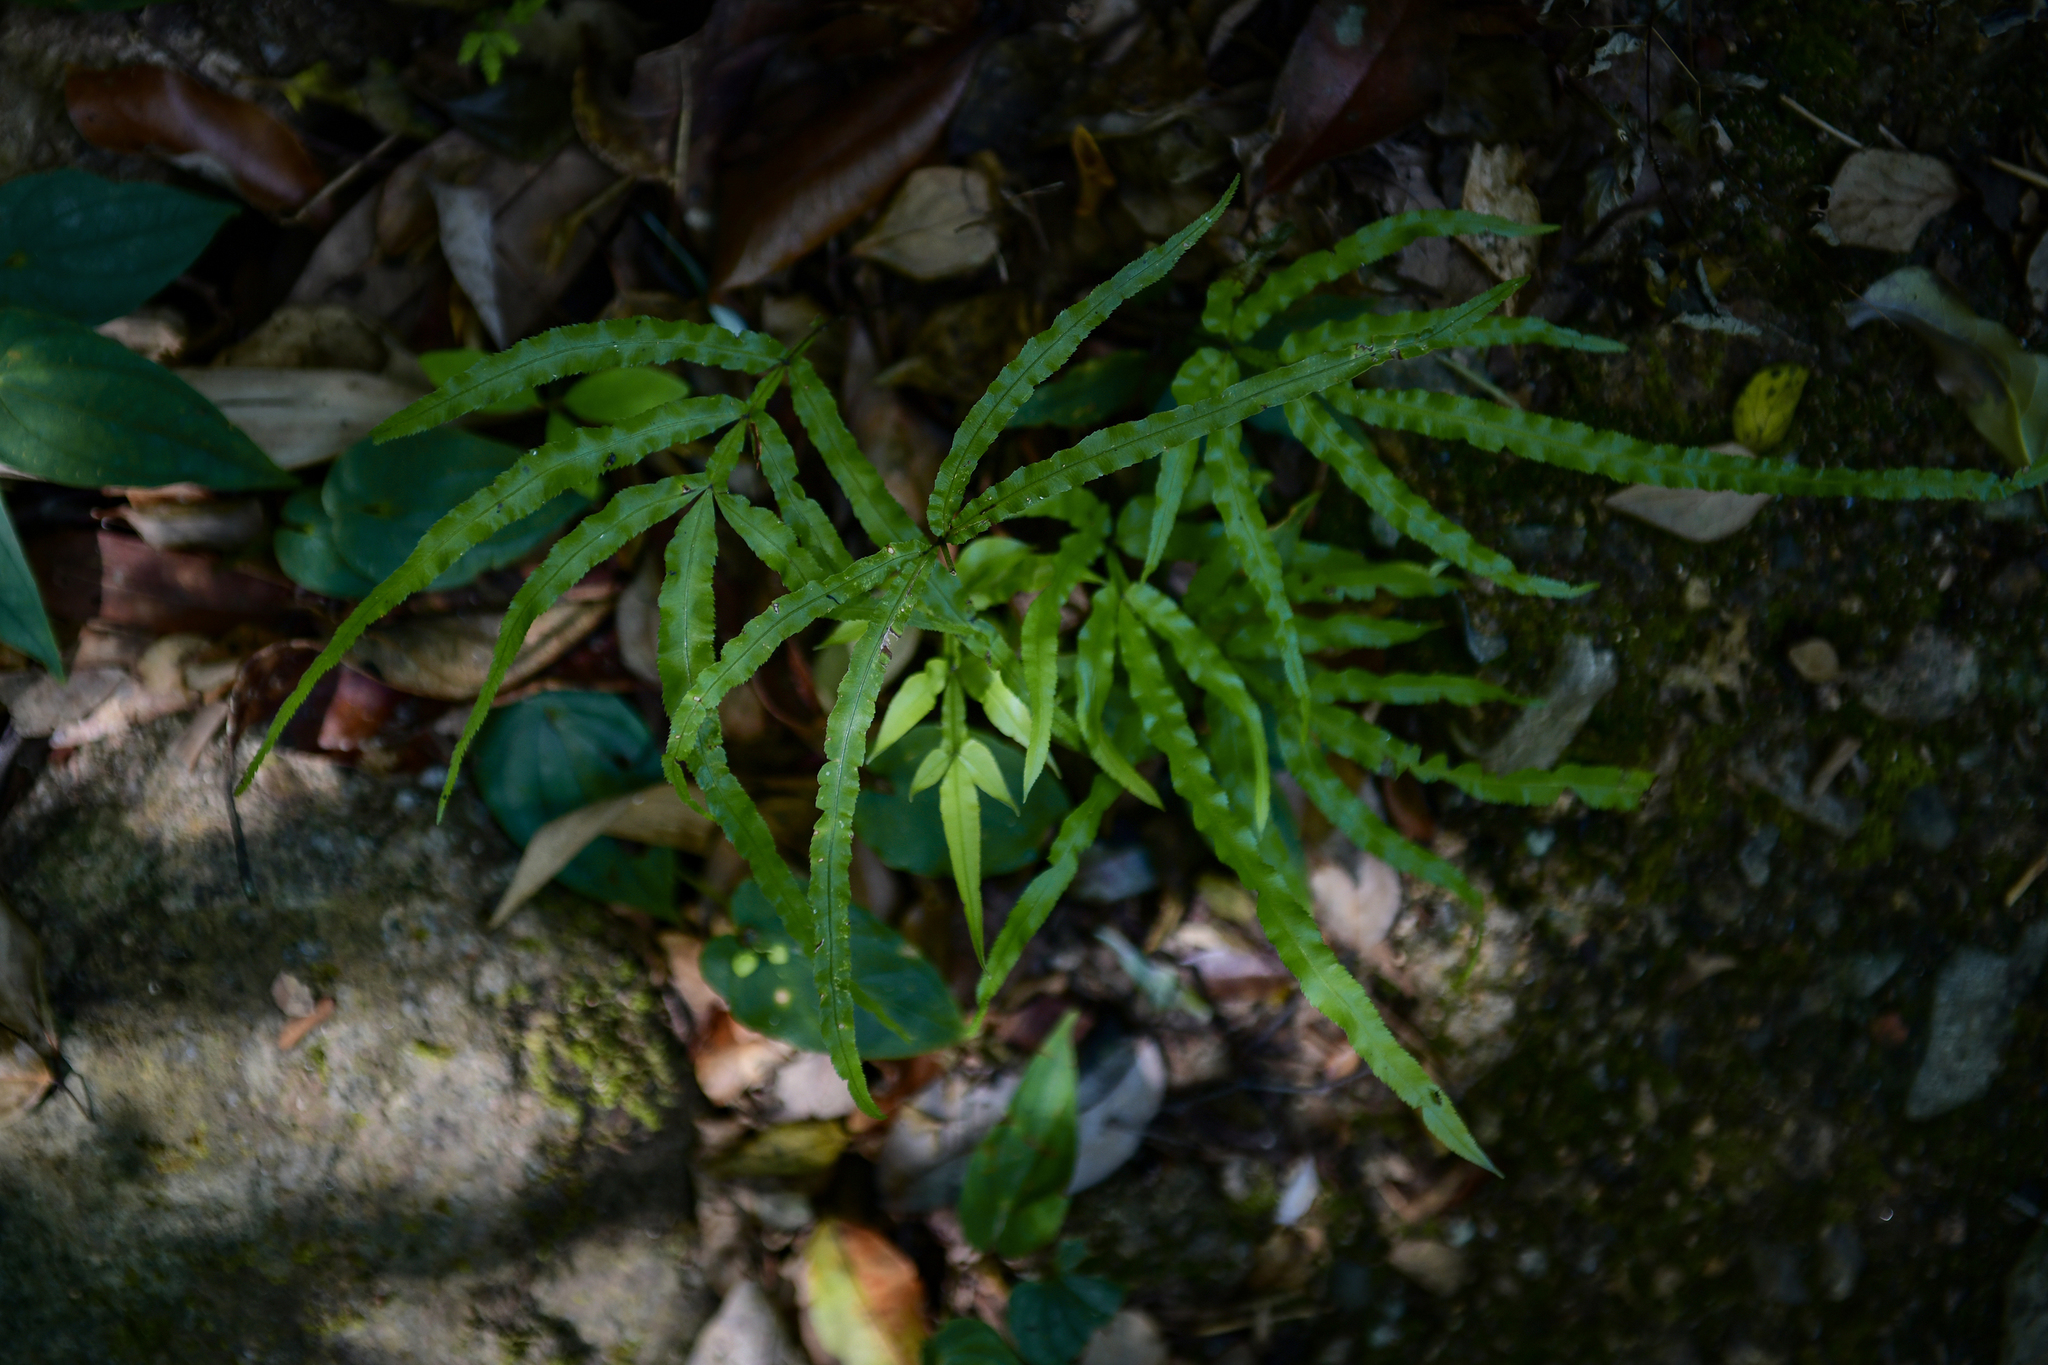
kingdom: Plantae
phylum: Tracheophyta
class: Polypodiopsida
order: Polypodiales
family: Pteridaceae
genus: Pteris
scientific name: Pteris multifida
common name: Spider brake
